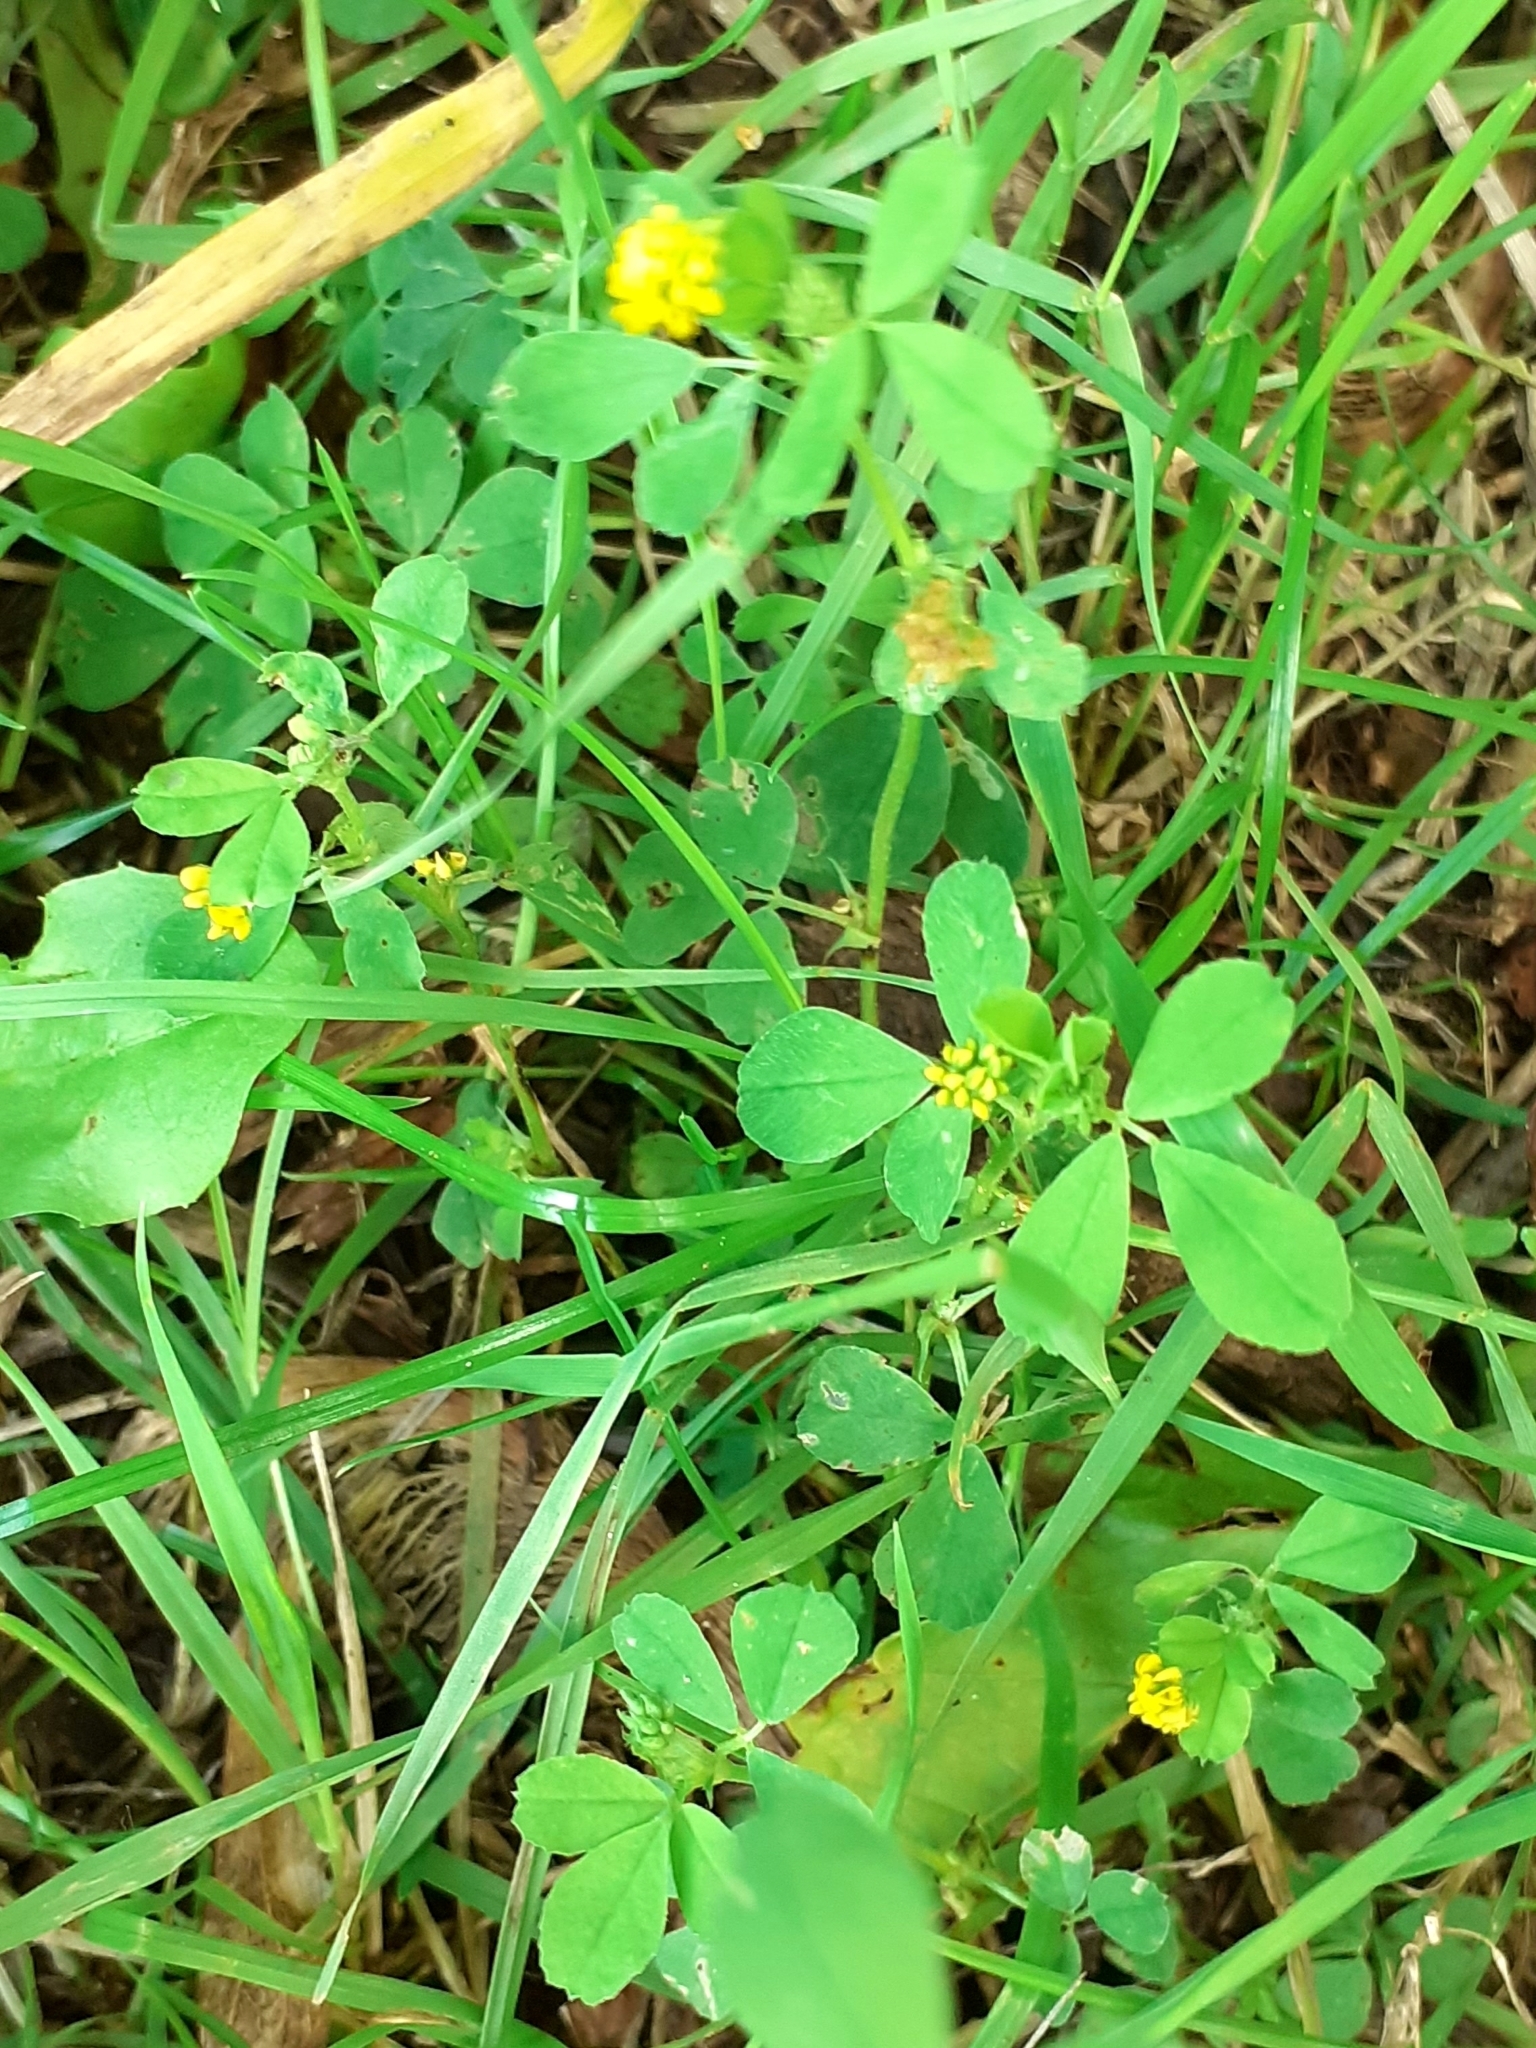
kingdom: Plantae
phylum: Tracheophyta
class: Magnoliopsida
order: Fabales
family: Fabaceae
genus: Medicago
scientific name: Medicago lupulina
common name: Black medick
